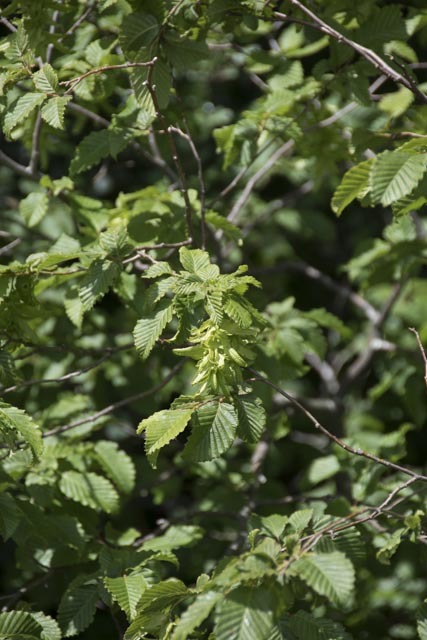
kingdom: Plantae
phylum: Tracheophyta
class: Magnoliopsida
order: Fagales
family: Betulaceae
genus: Carpinus
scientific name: Carpinus betulus
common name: Hornbeam
